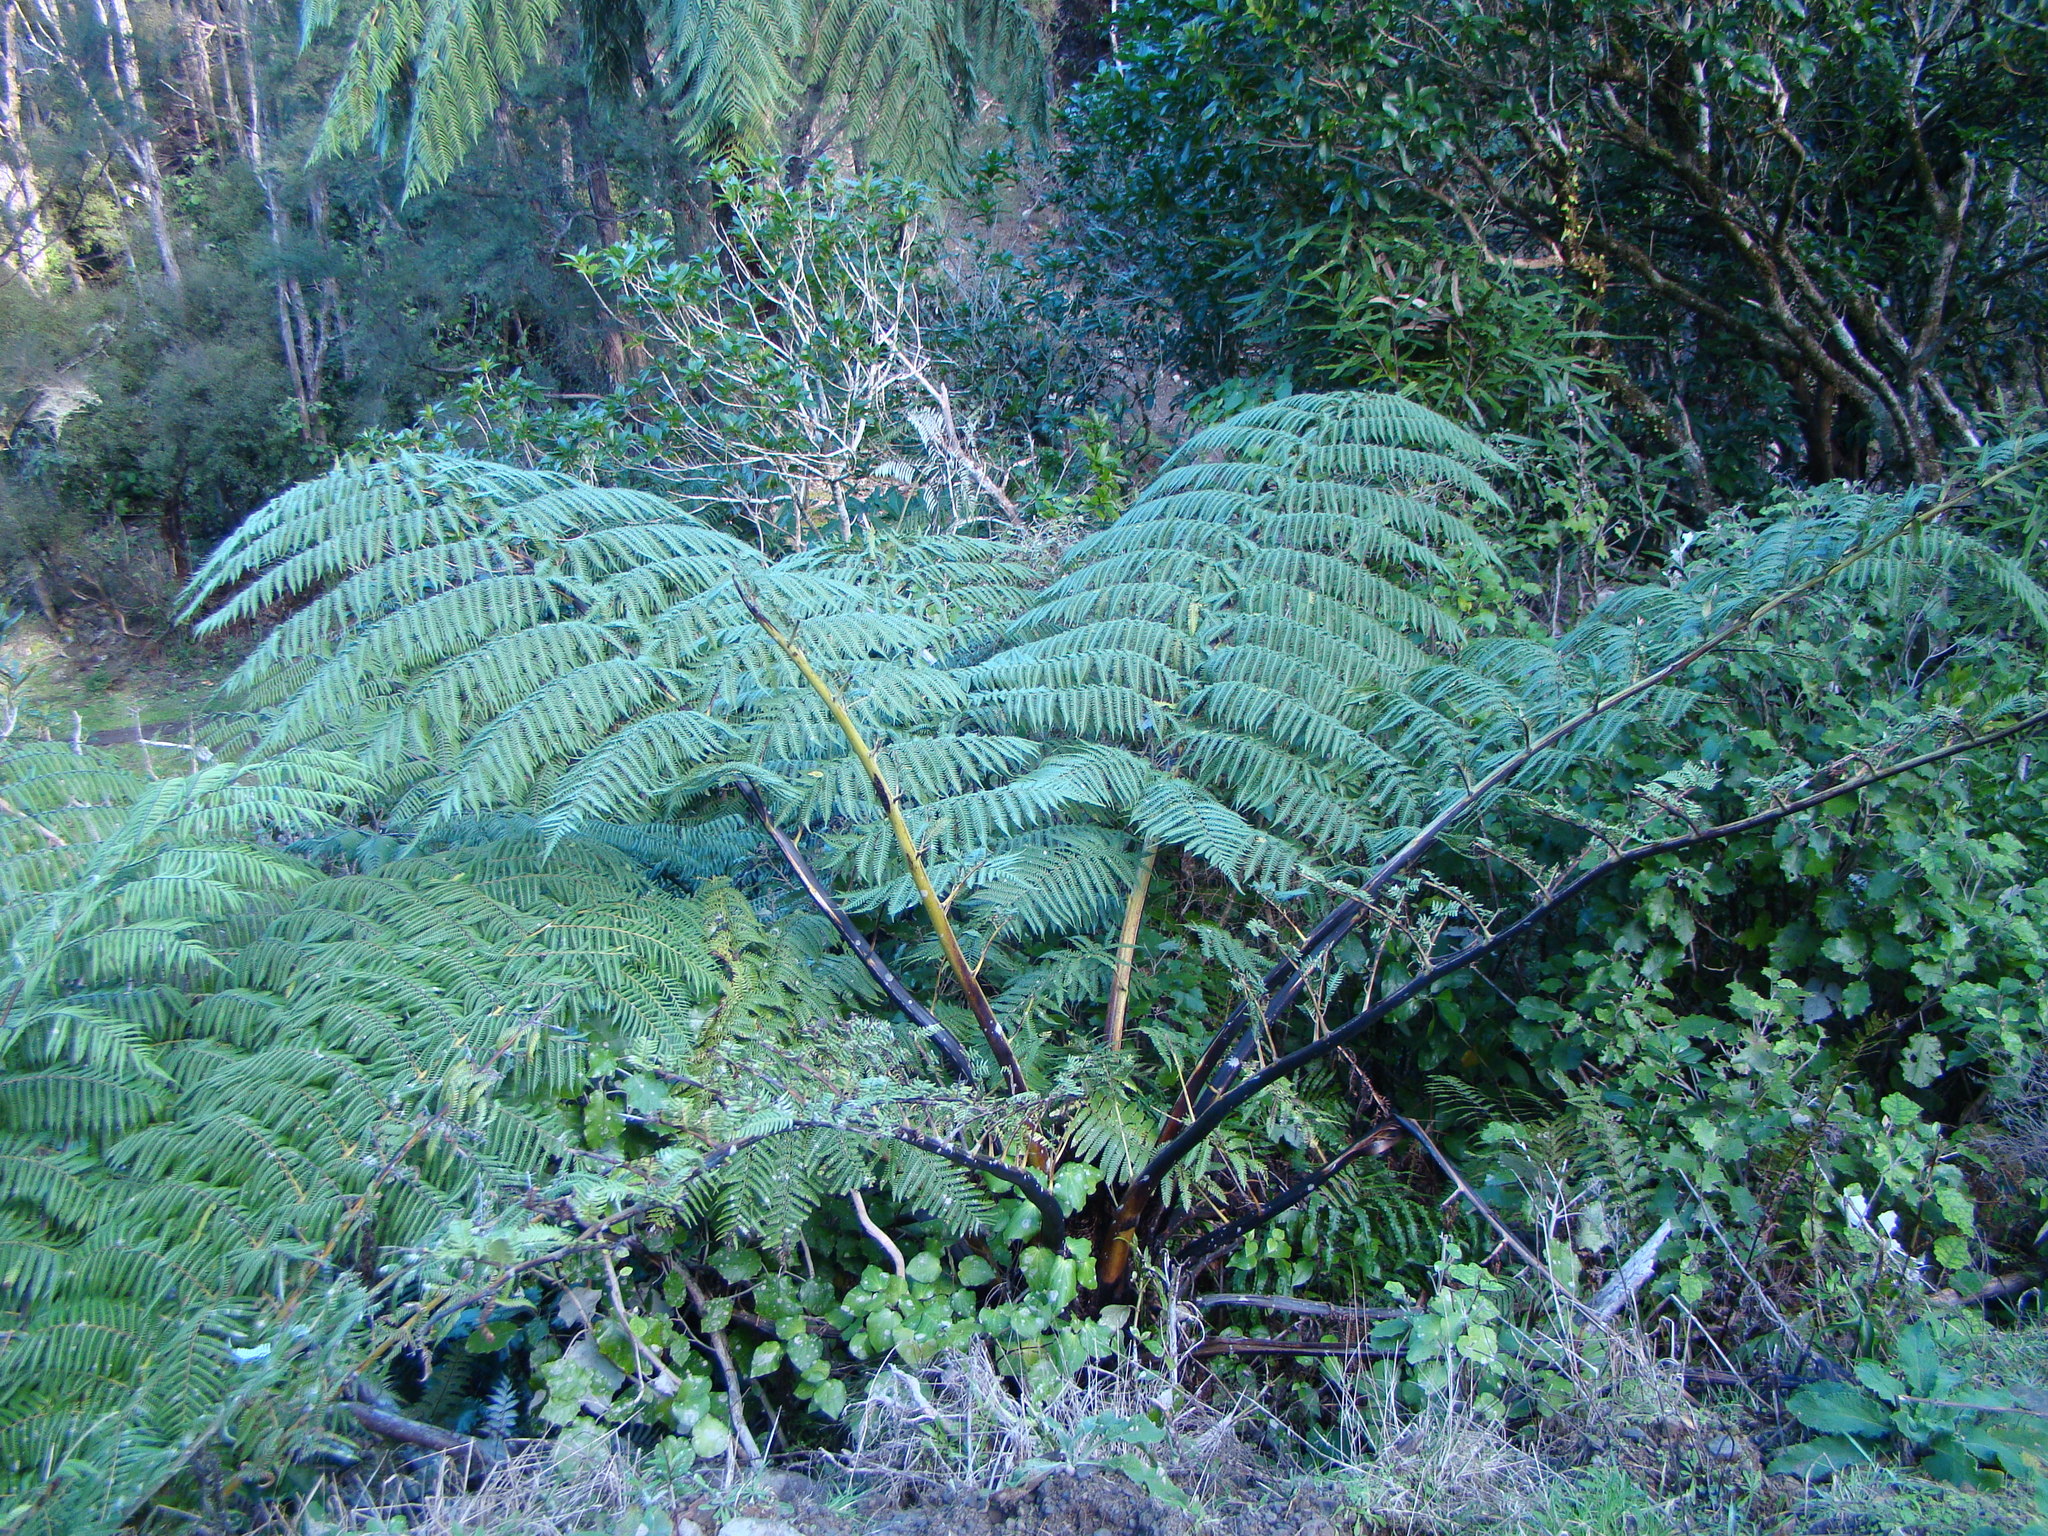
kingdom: Plantae
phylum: Tracheophyta
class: Polypodiopsida
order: Cyatheales
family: Cyatheaceae
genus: Sphaeropteris
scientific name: Sphaeropteris medullaris
